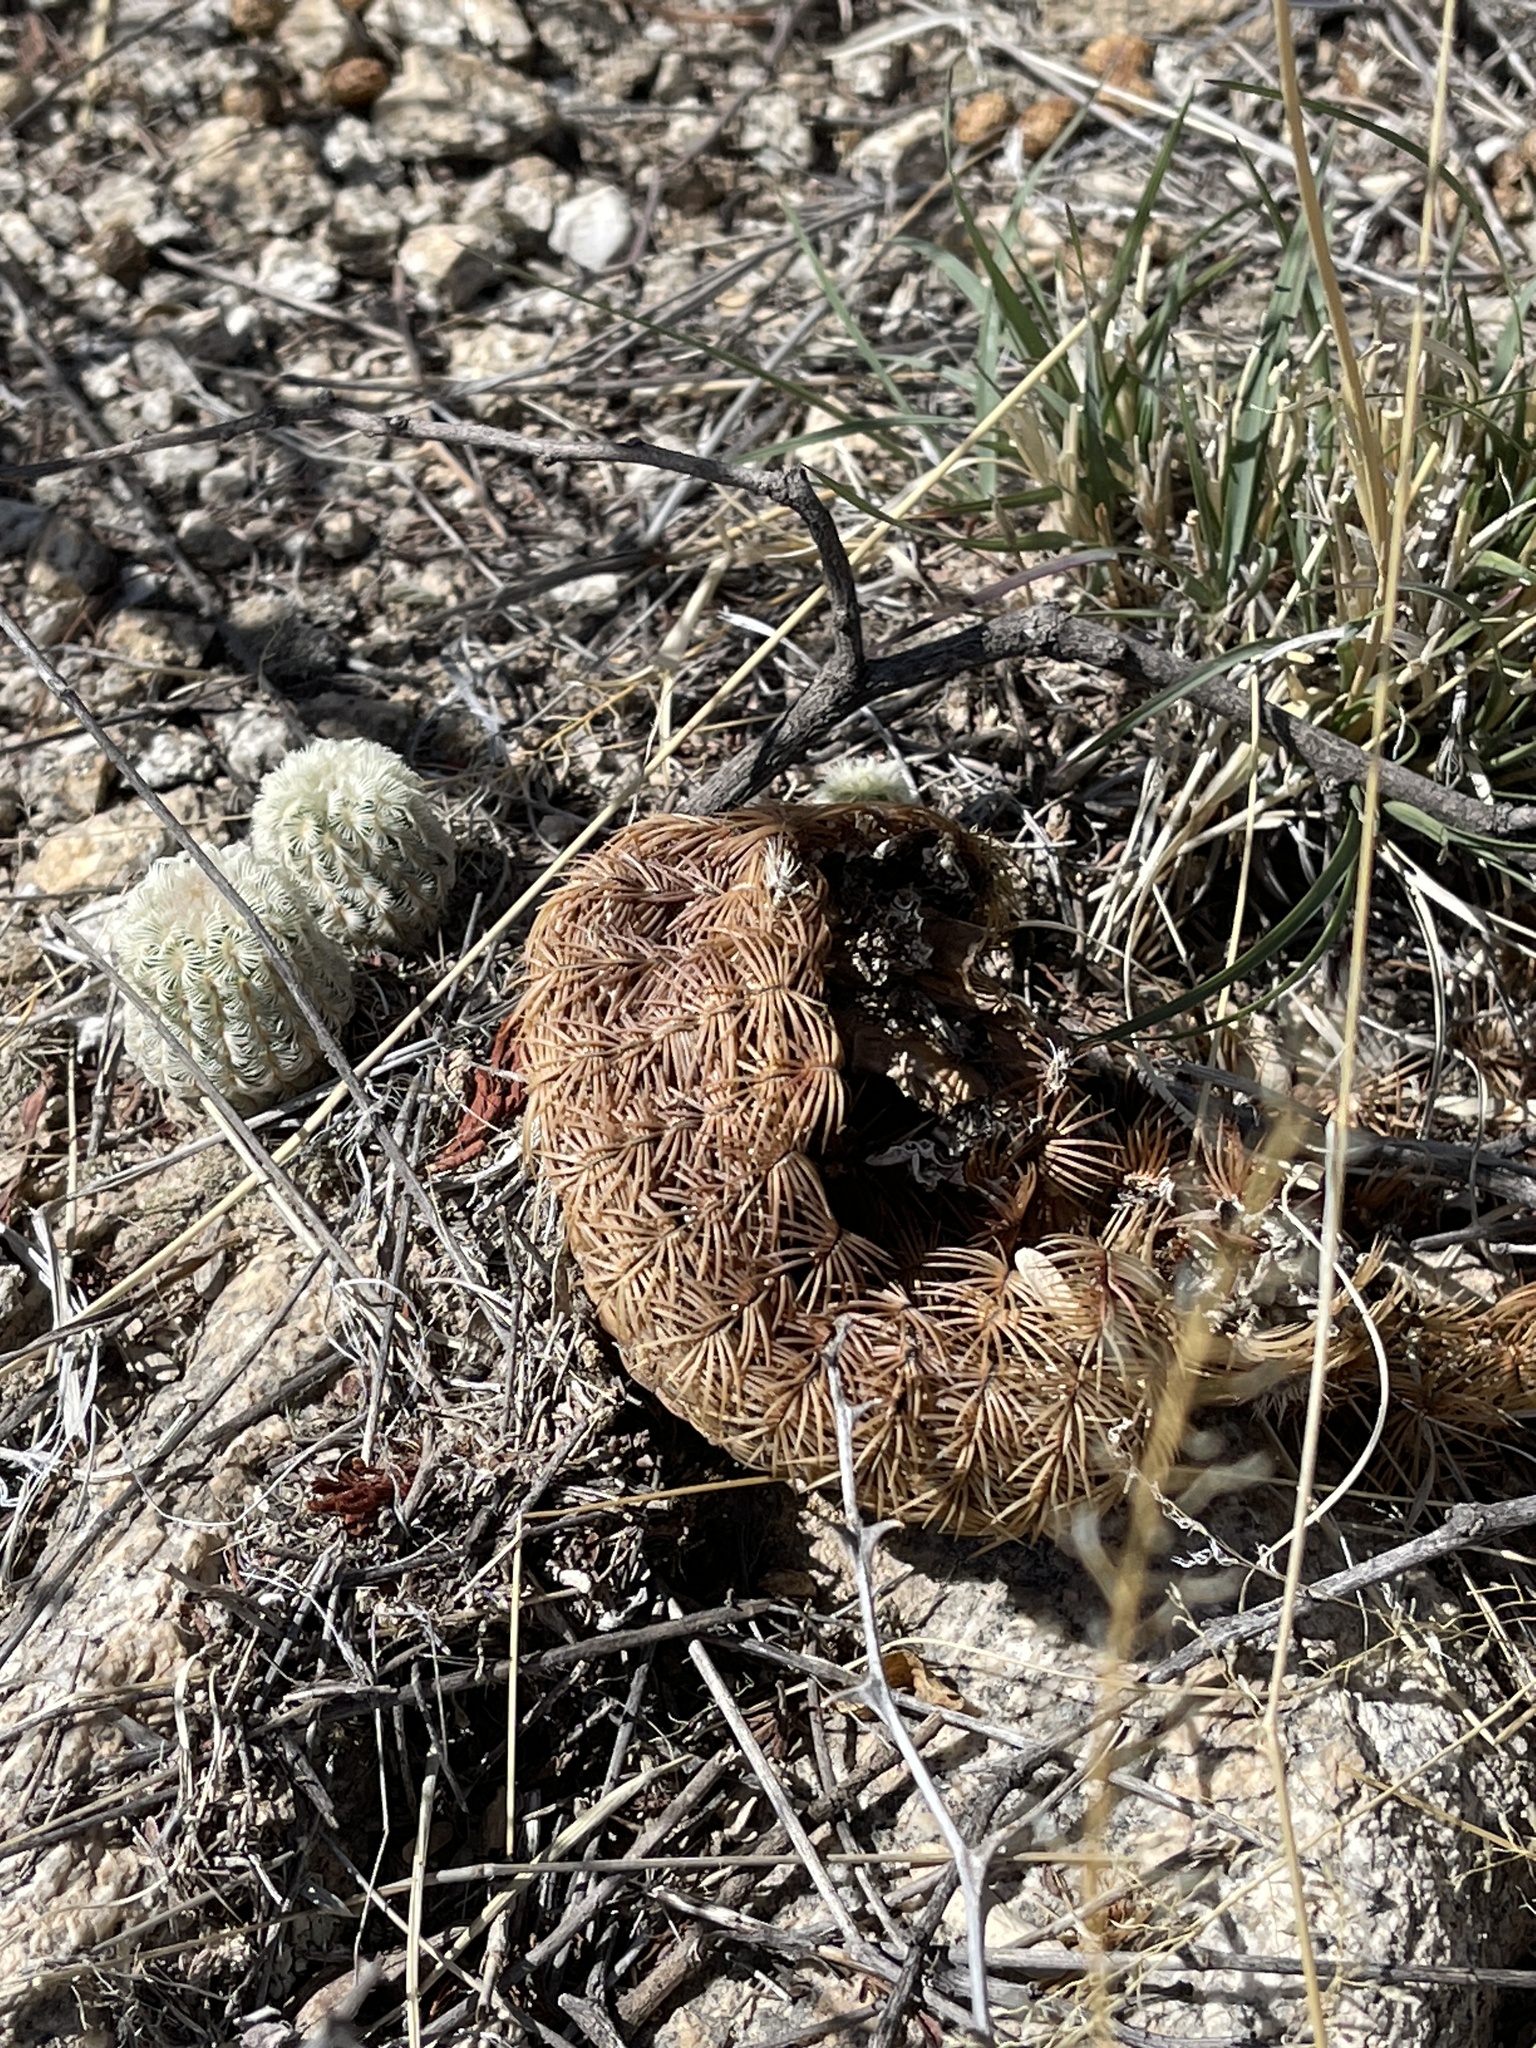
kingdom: Plantae
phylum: Tracheophyta
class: Magnoliopsida
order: Caryophyllales
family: Cactaceae
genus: Echinocereus
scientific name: Echinocereus rigidissimus
